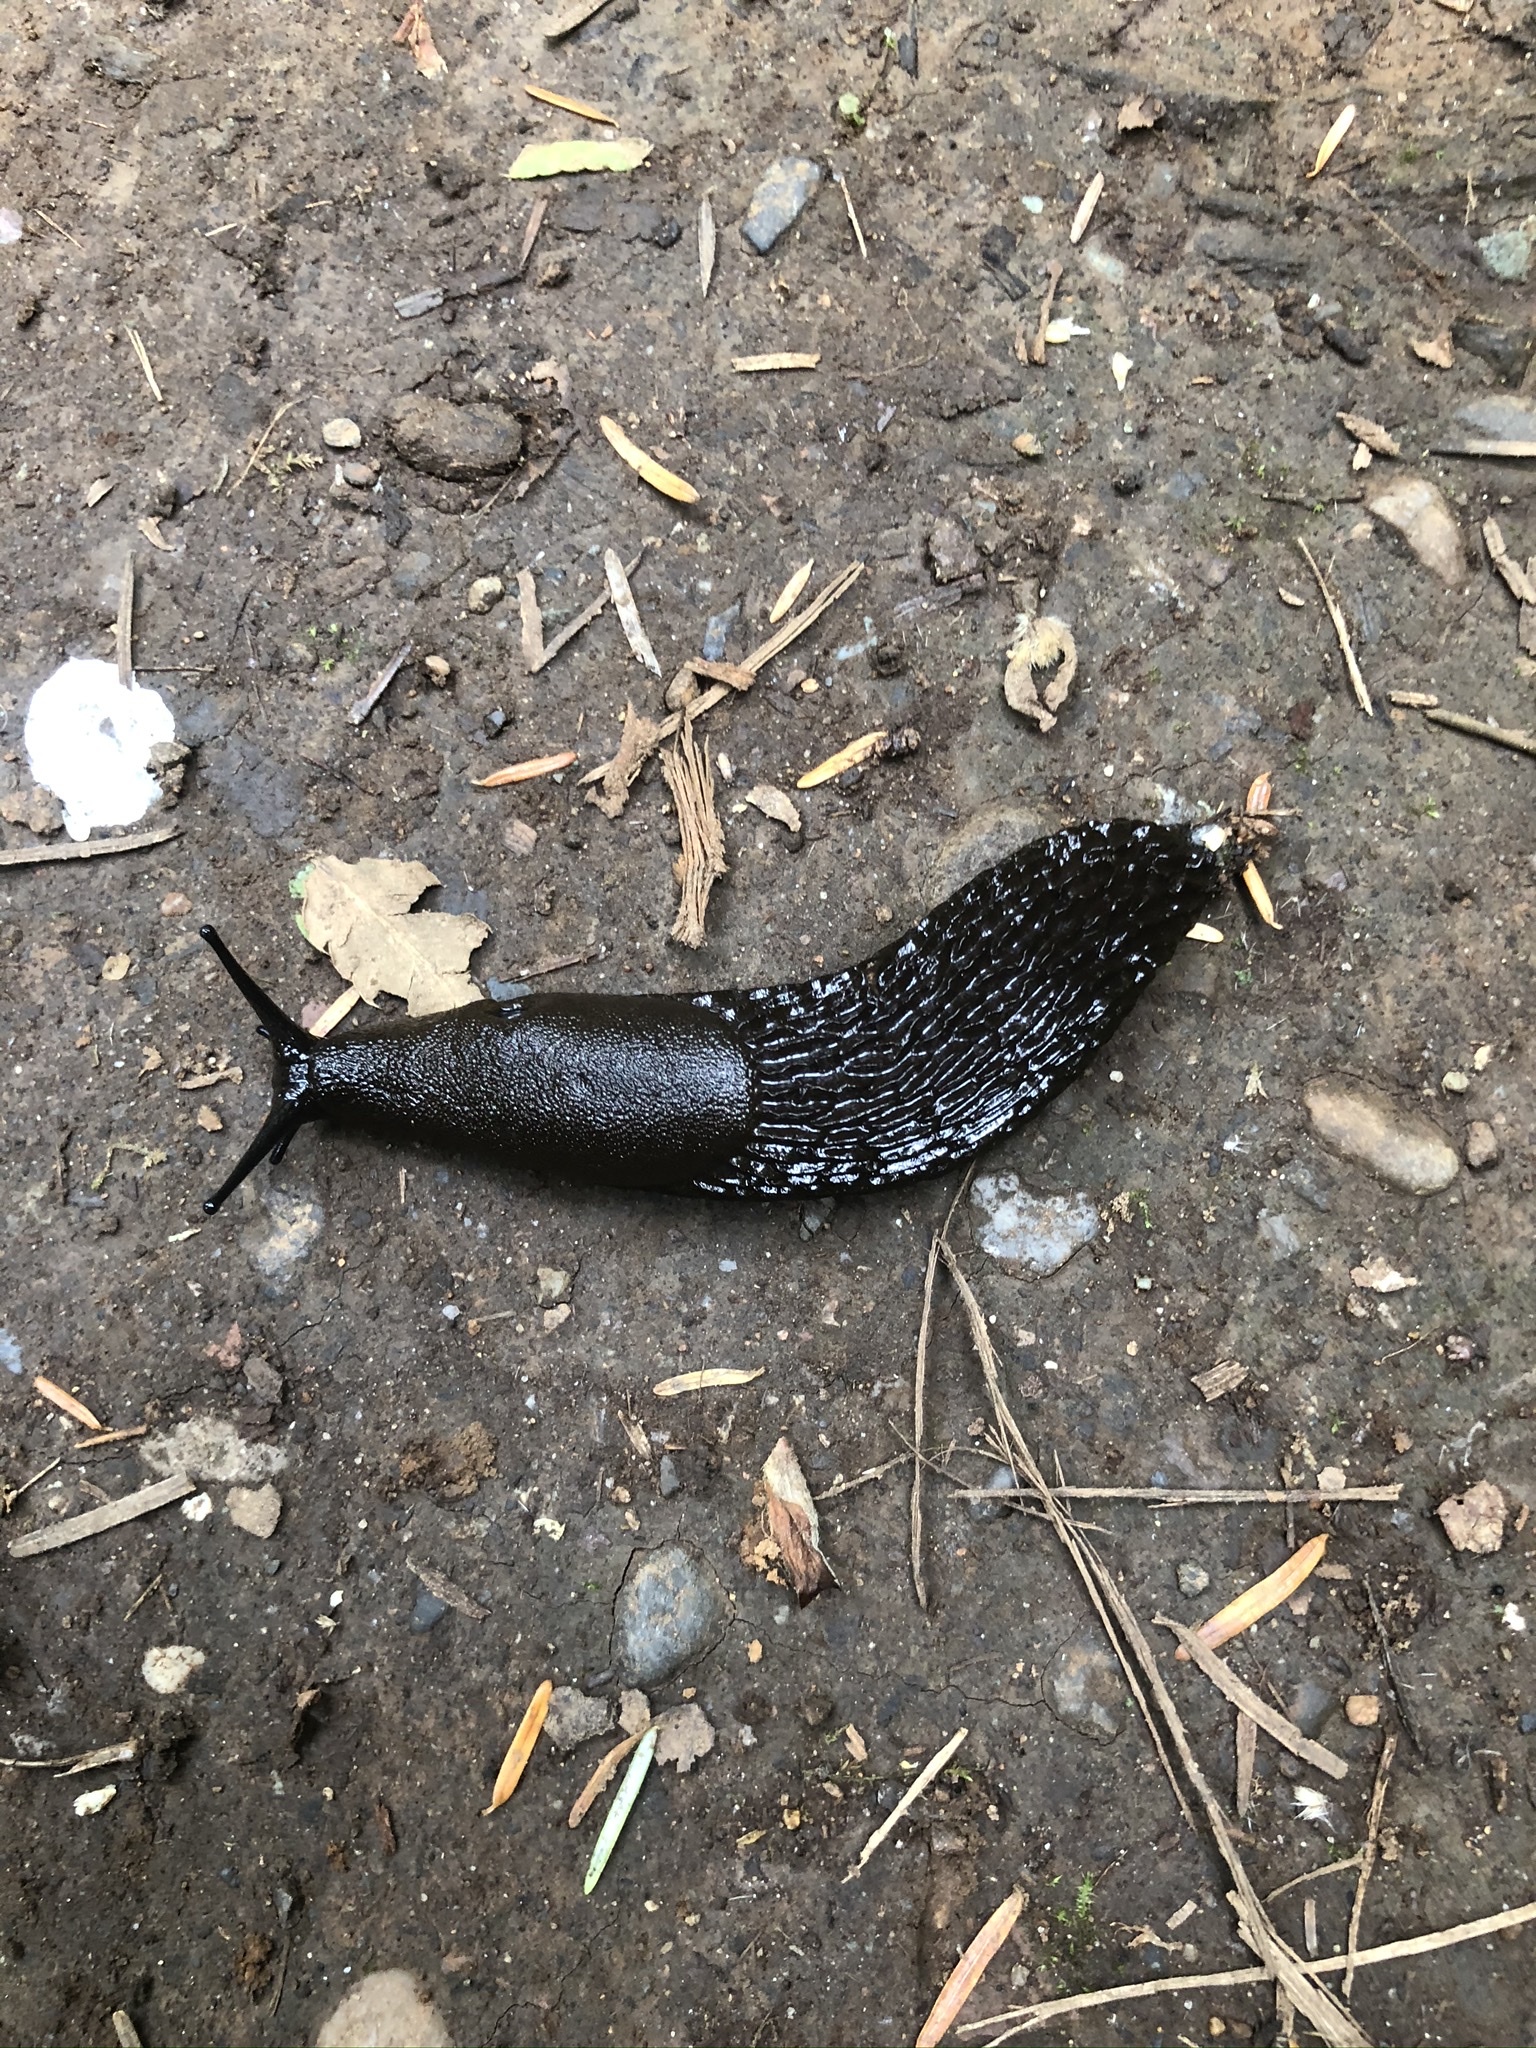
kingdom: Animalia
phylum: Mollusca
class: Gastropoda
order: Stylommatophora
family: Arionidae
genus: Arion
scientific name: Arion
